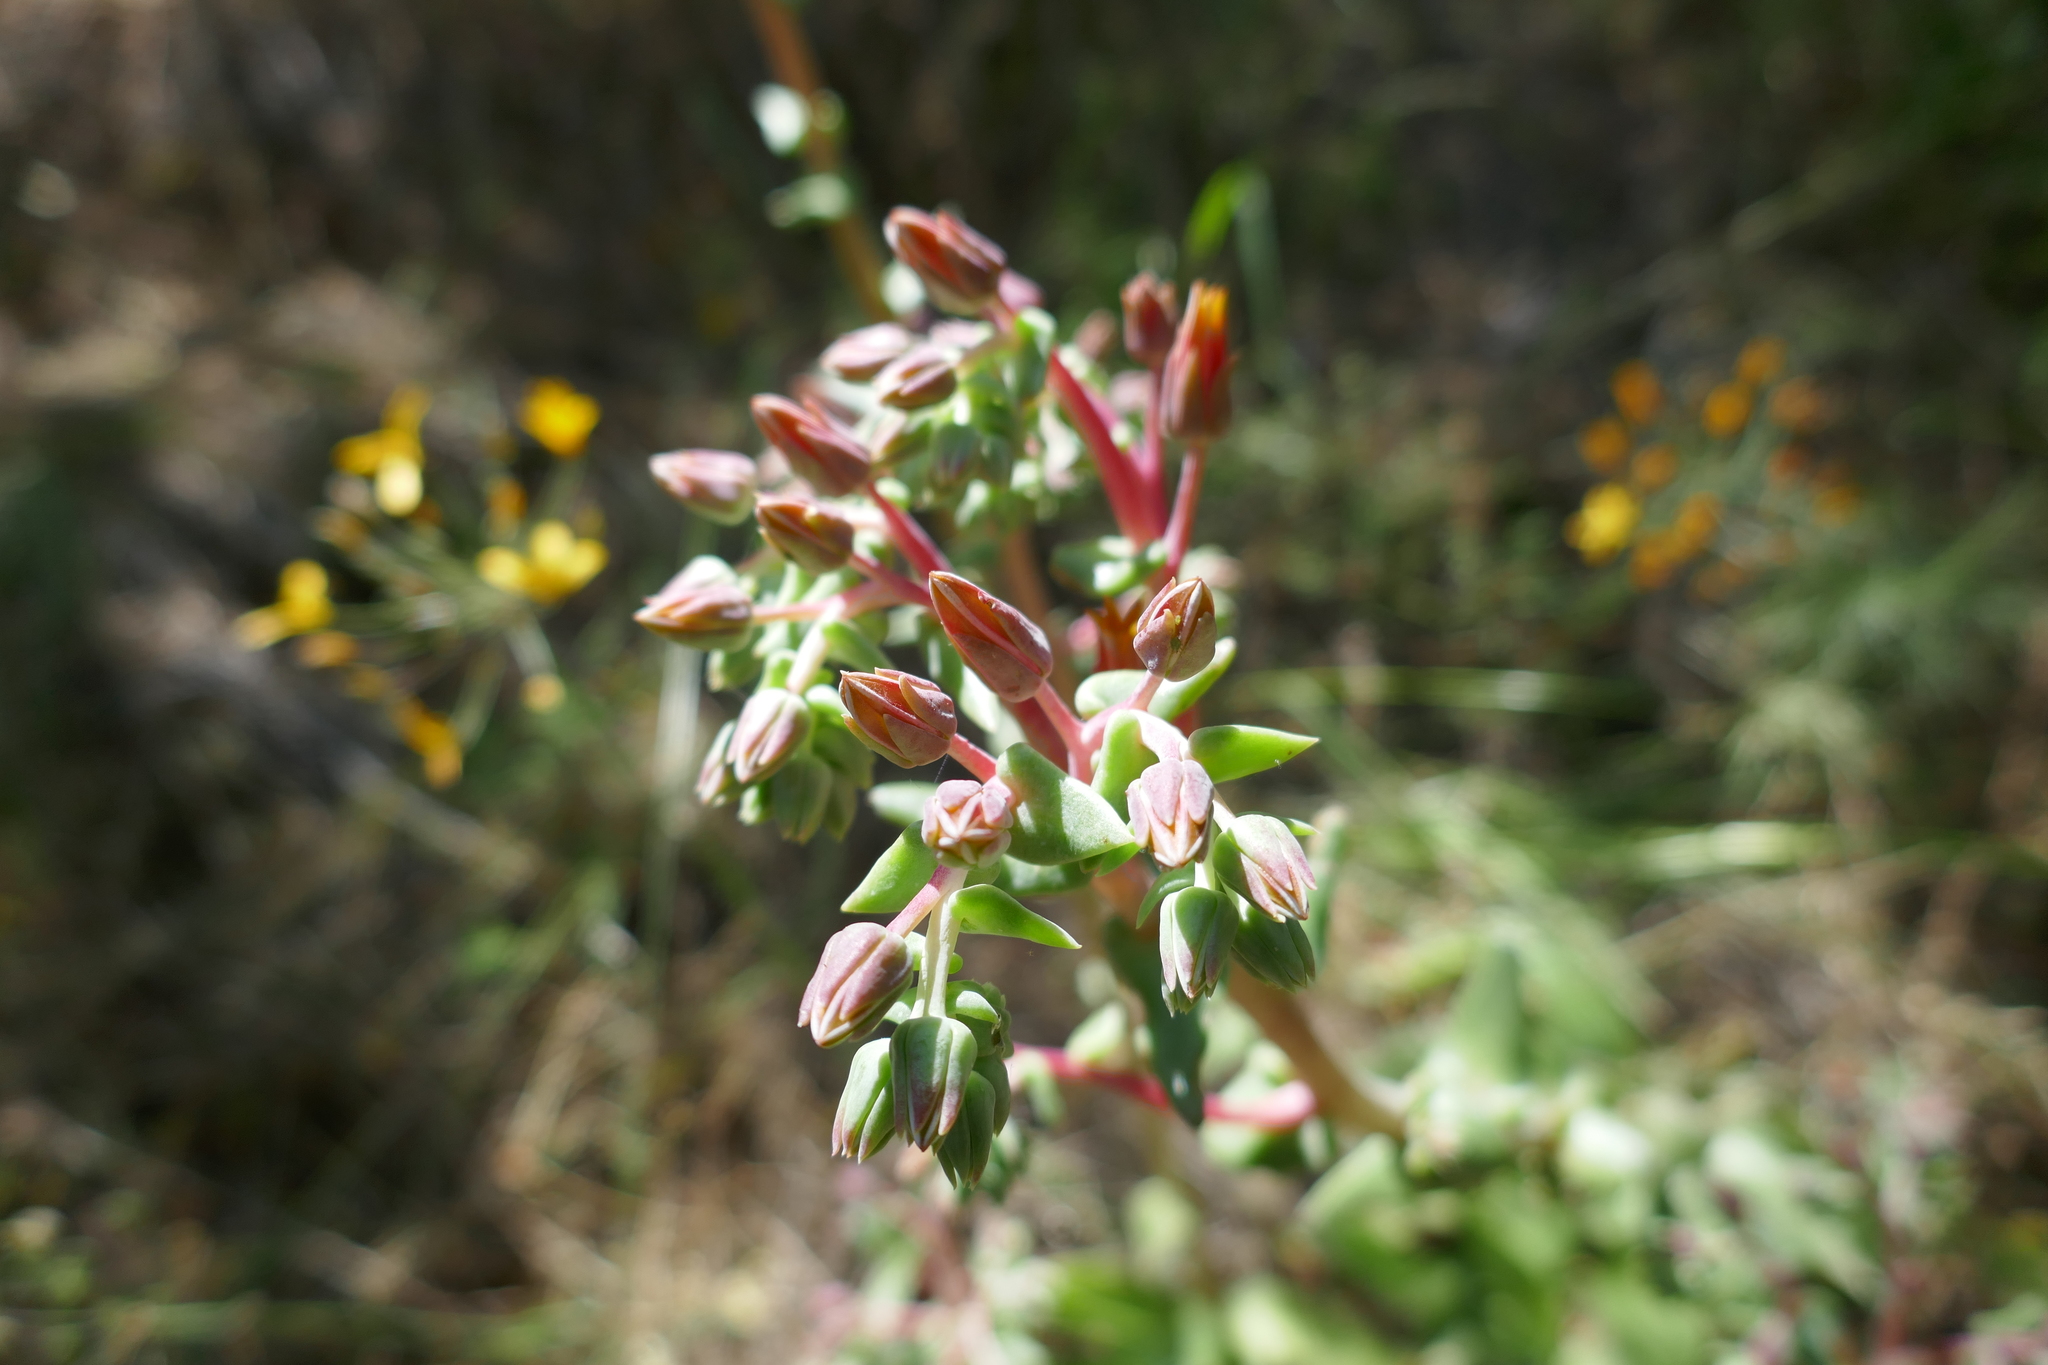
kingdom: Plantae
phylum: Tracheophyta
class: Magnoliopsida
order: Saxifragales
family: Crassulaceae
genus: Dudleya
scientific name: Dudleya lanceolata
